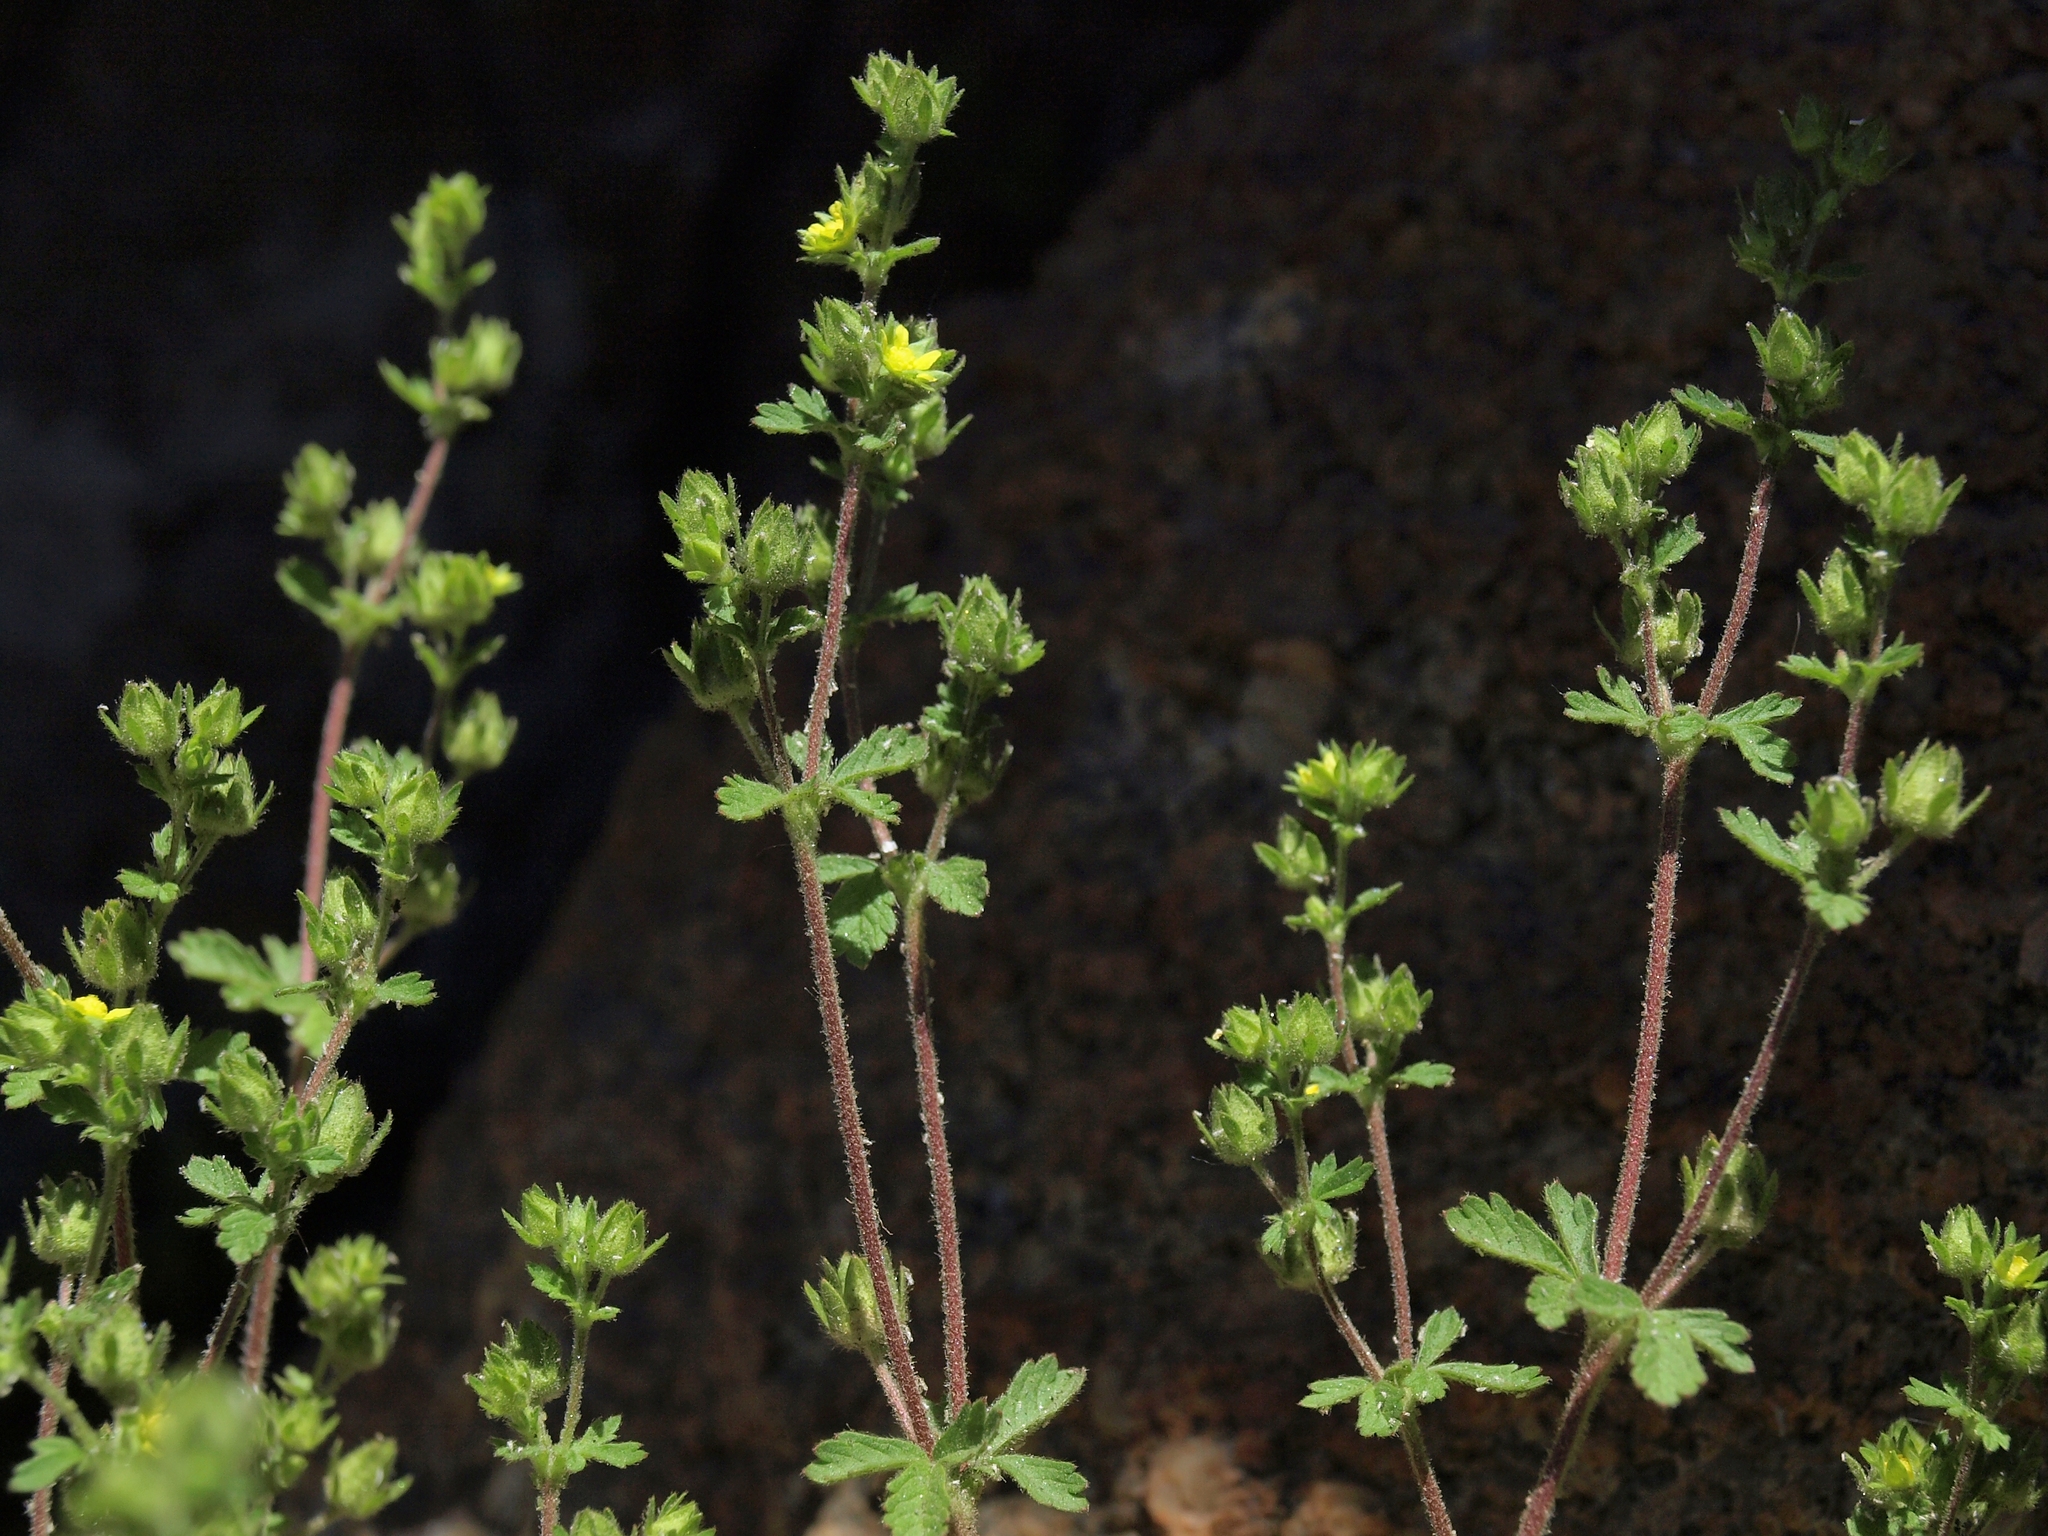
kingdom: Plantae
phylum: Tracheophyta
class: Magnoliopsida
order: Rosales
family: Rosaceae
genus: Potentilla
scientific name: Potentilla biennis
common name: Greene's cinquefoil
